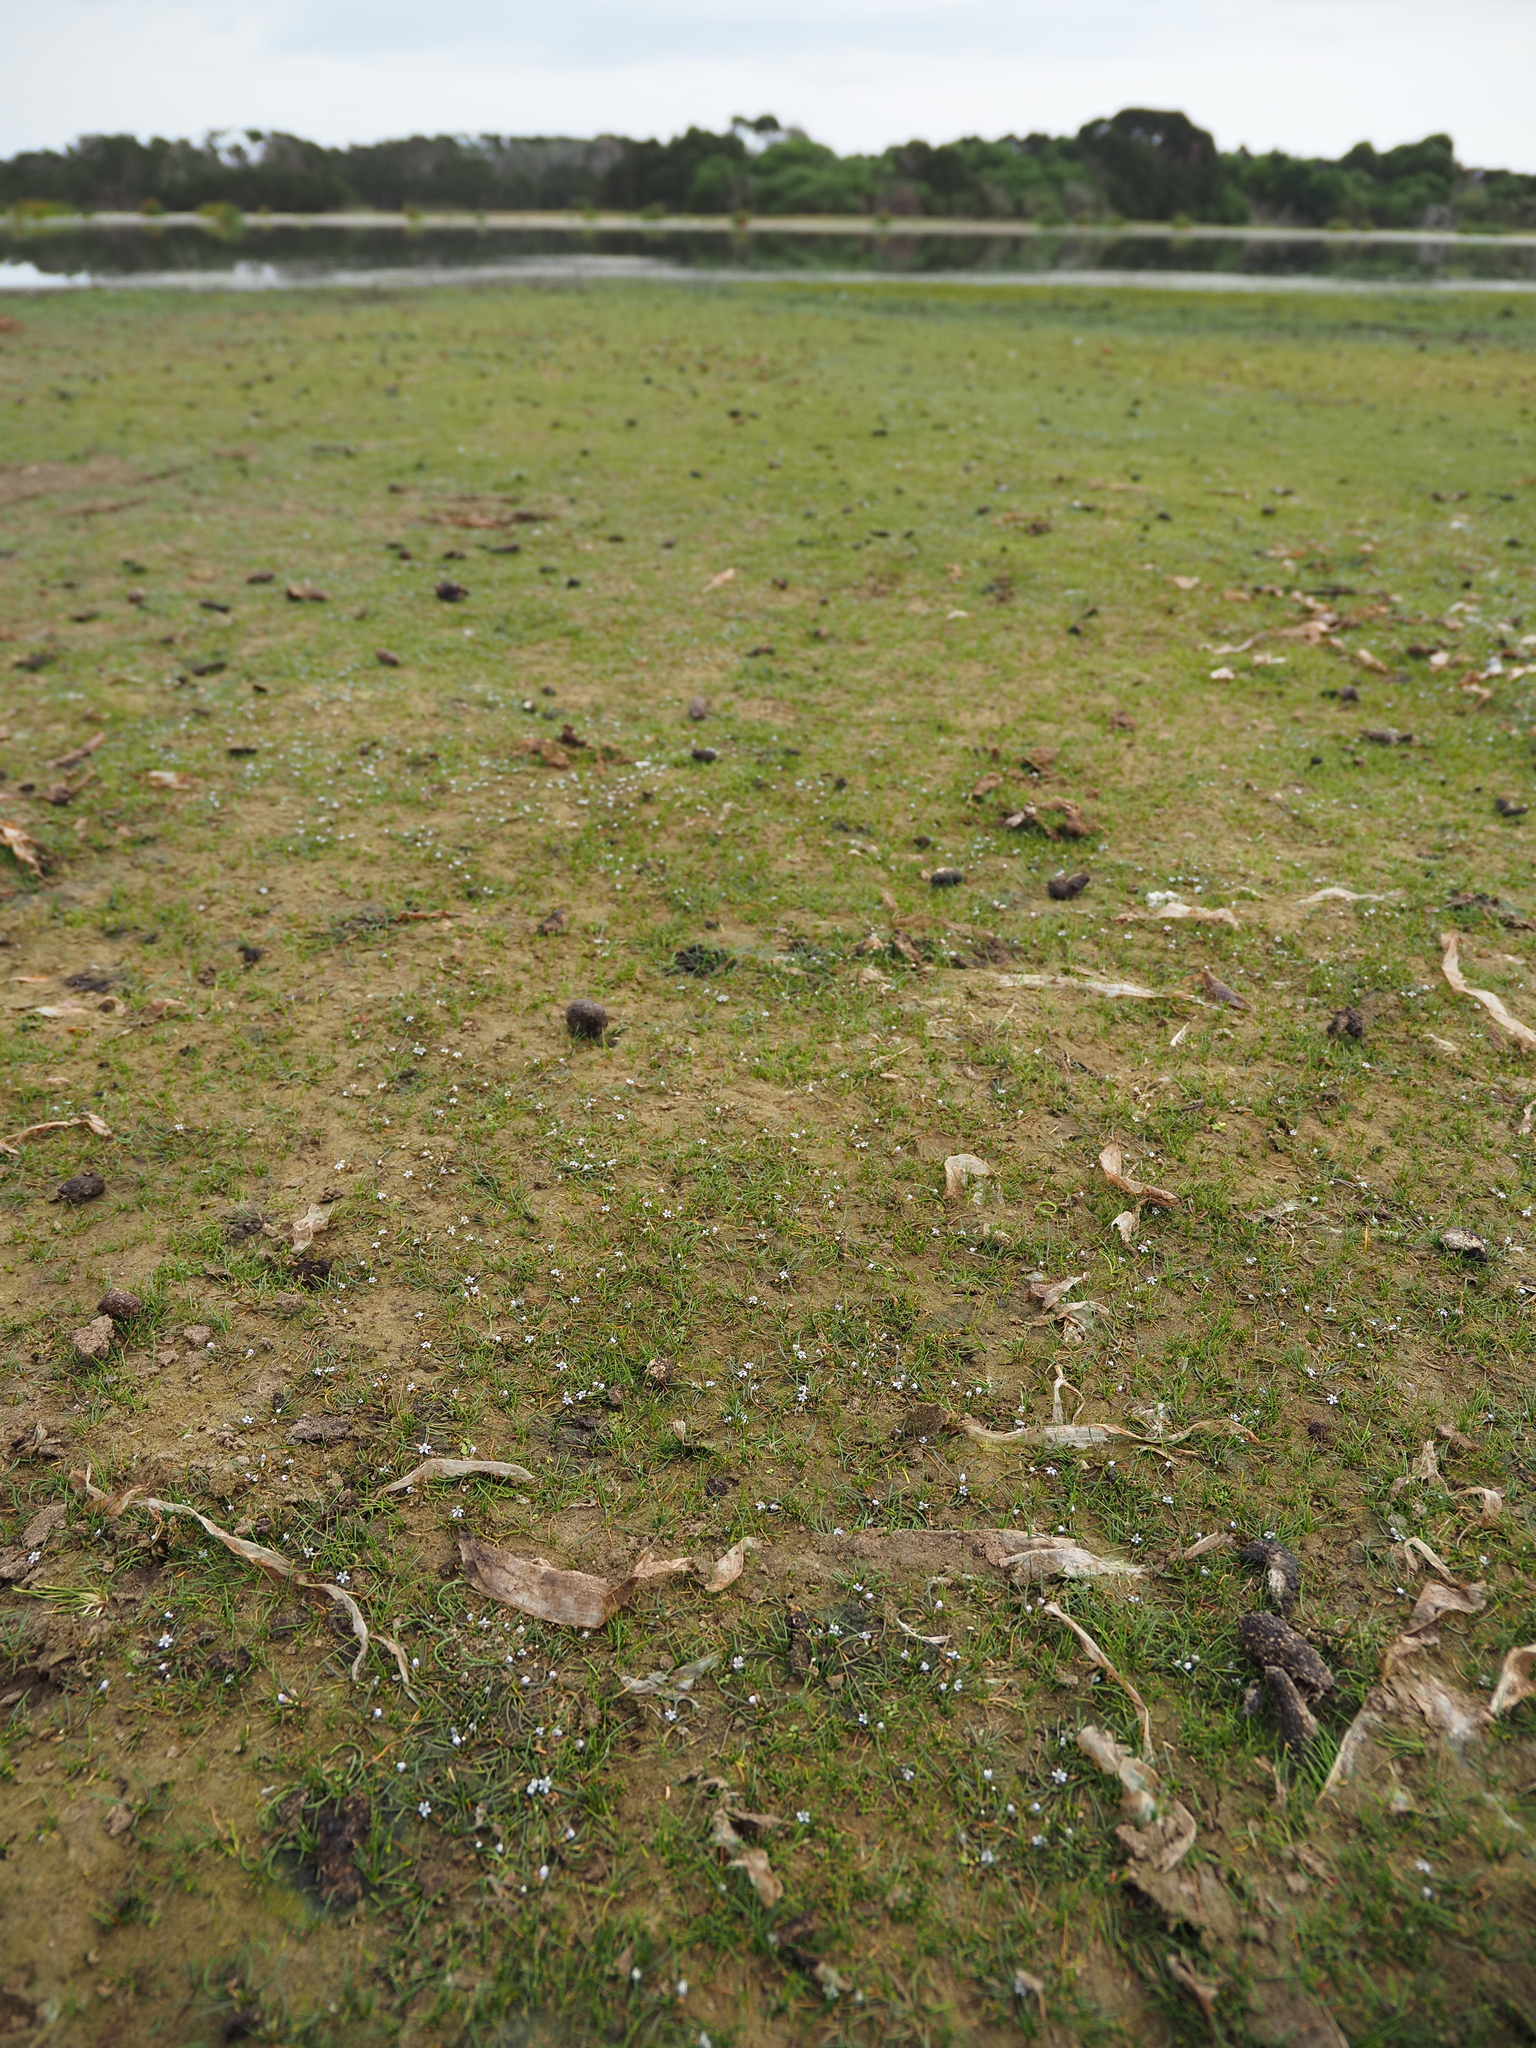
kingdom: Plantae
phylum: Tracheophyta
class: Magnoliopsida
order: Lamiales
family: Scrophulariaceae
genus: Limosella
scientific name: Limosella australis
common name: Welsh mudwort
